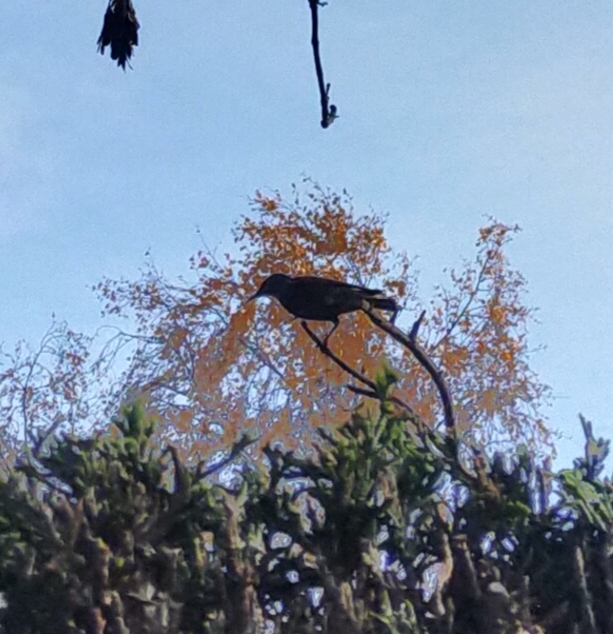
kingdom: Animalia
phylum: Chordata
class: Aves
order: Passeriformes
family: Sturnidae
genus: Sturnus
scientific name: Sturnus vulgaris
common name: Common starling
